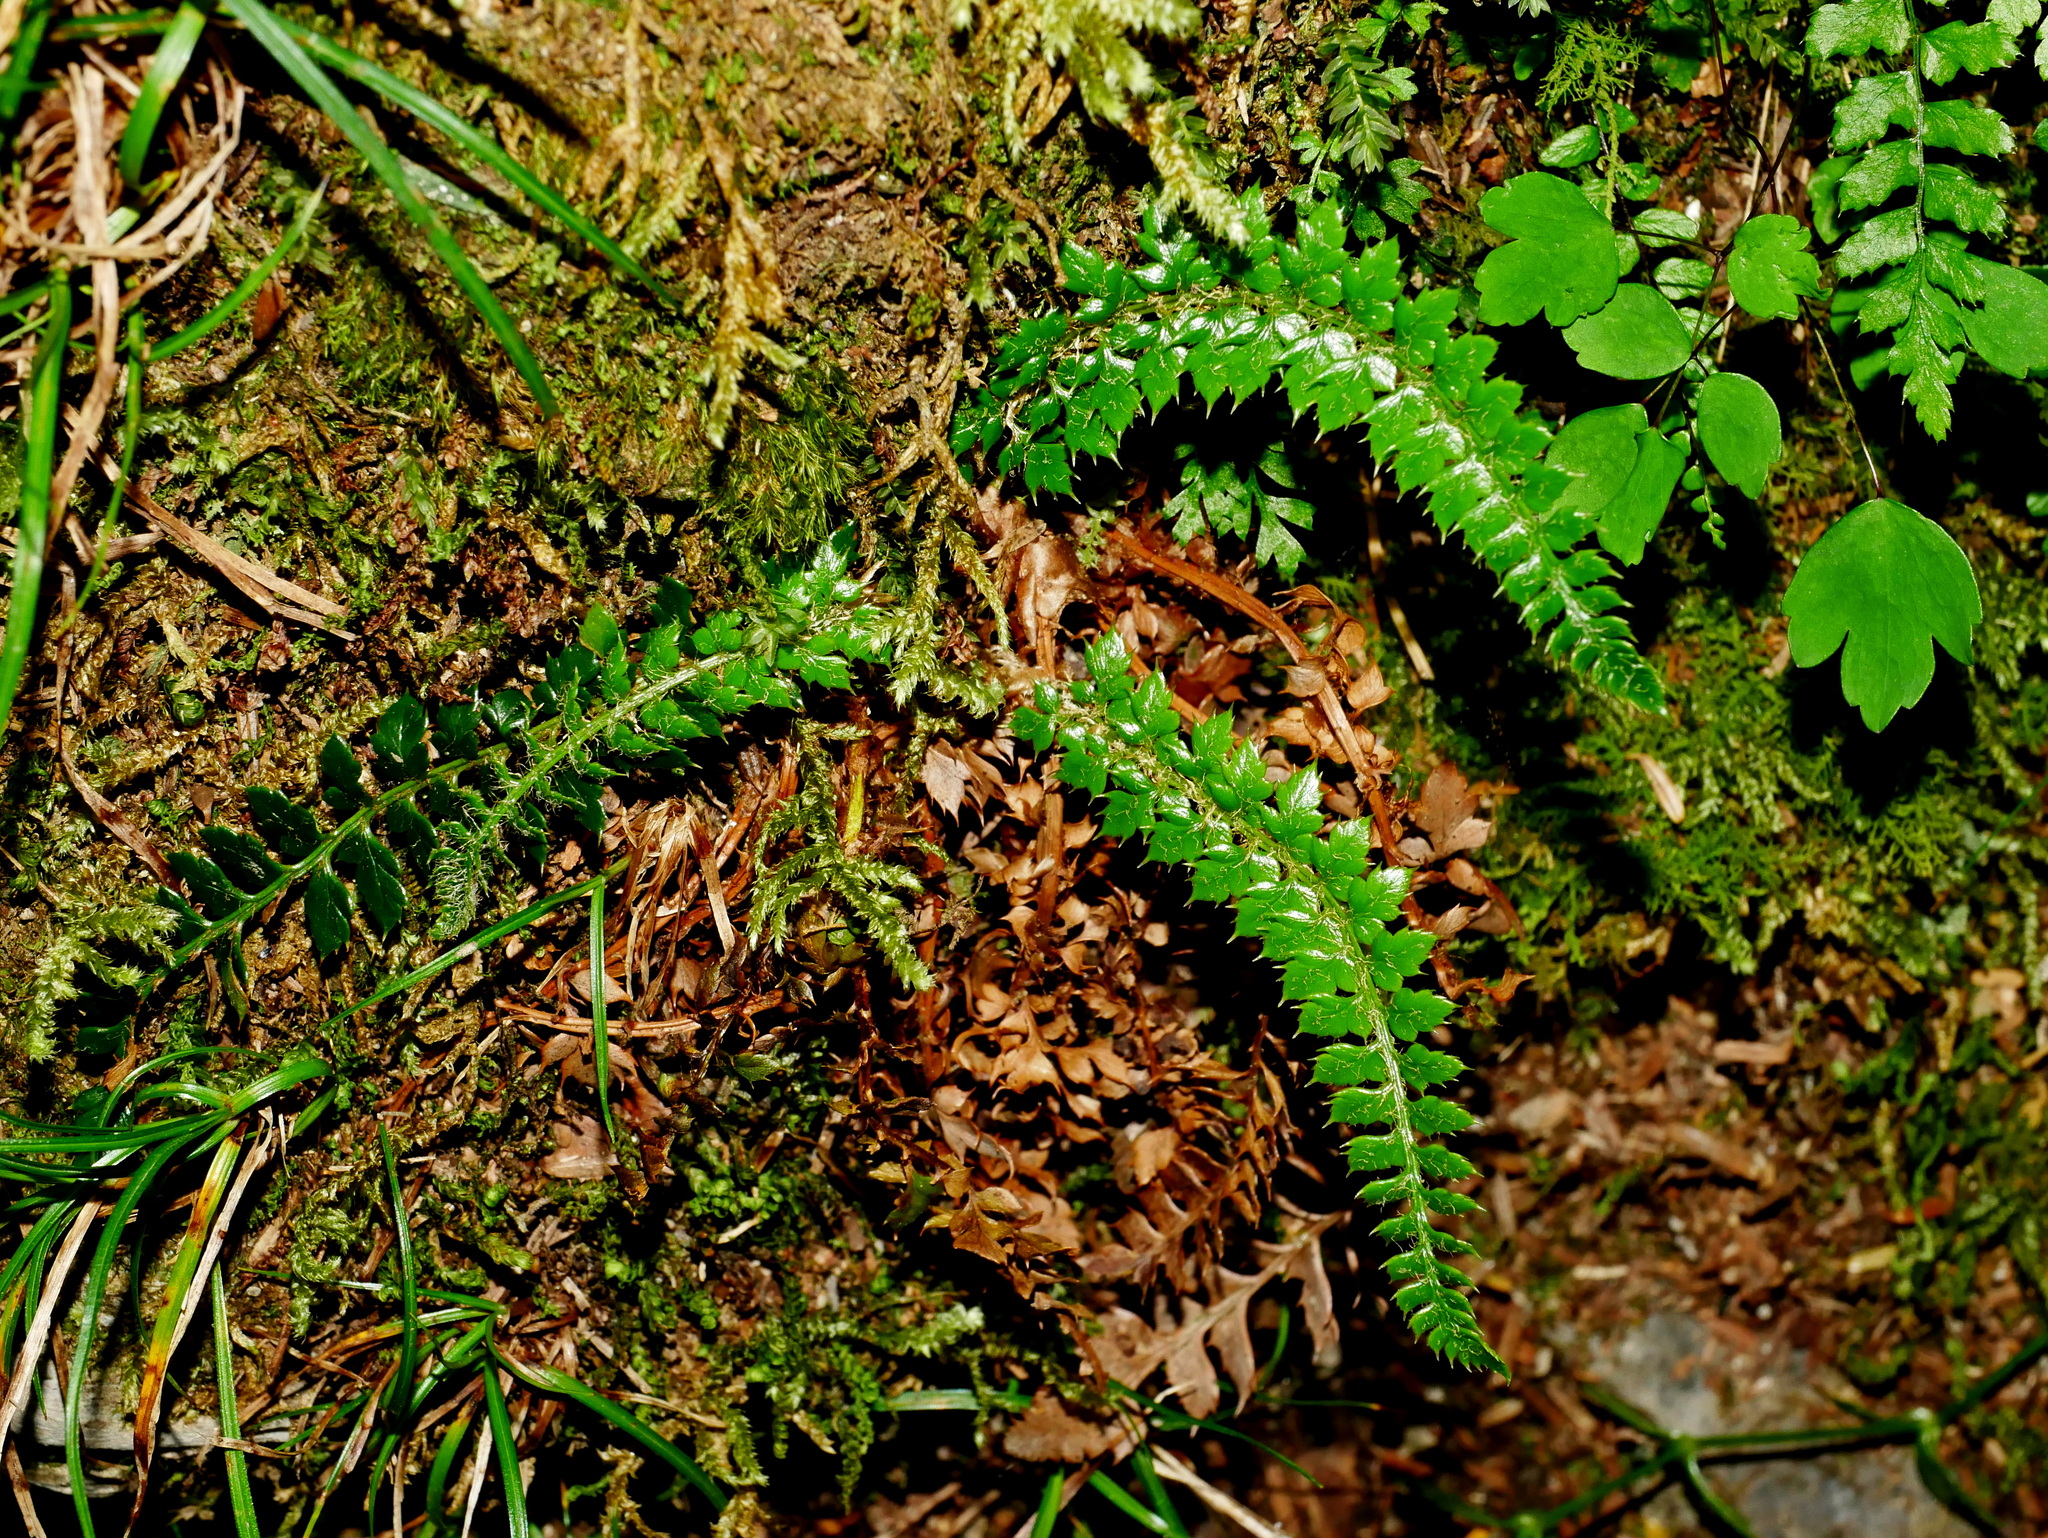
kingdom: Plantae
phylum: Tracheophyta
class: Polypodiopsida
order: Polypodiales
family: Dryopteridaceae
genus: Polystichum
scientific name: Polystichum acanthophyllum
